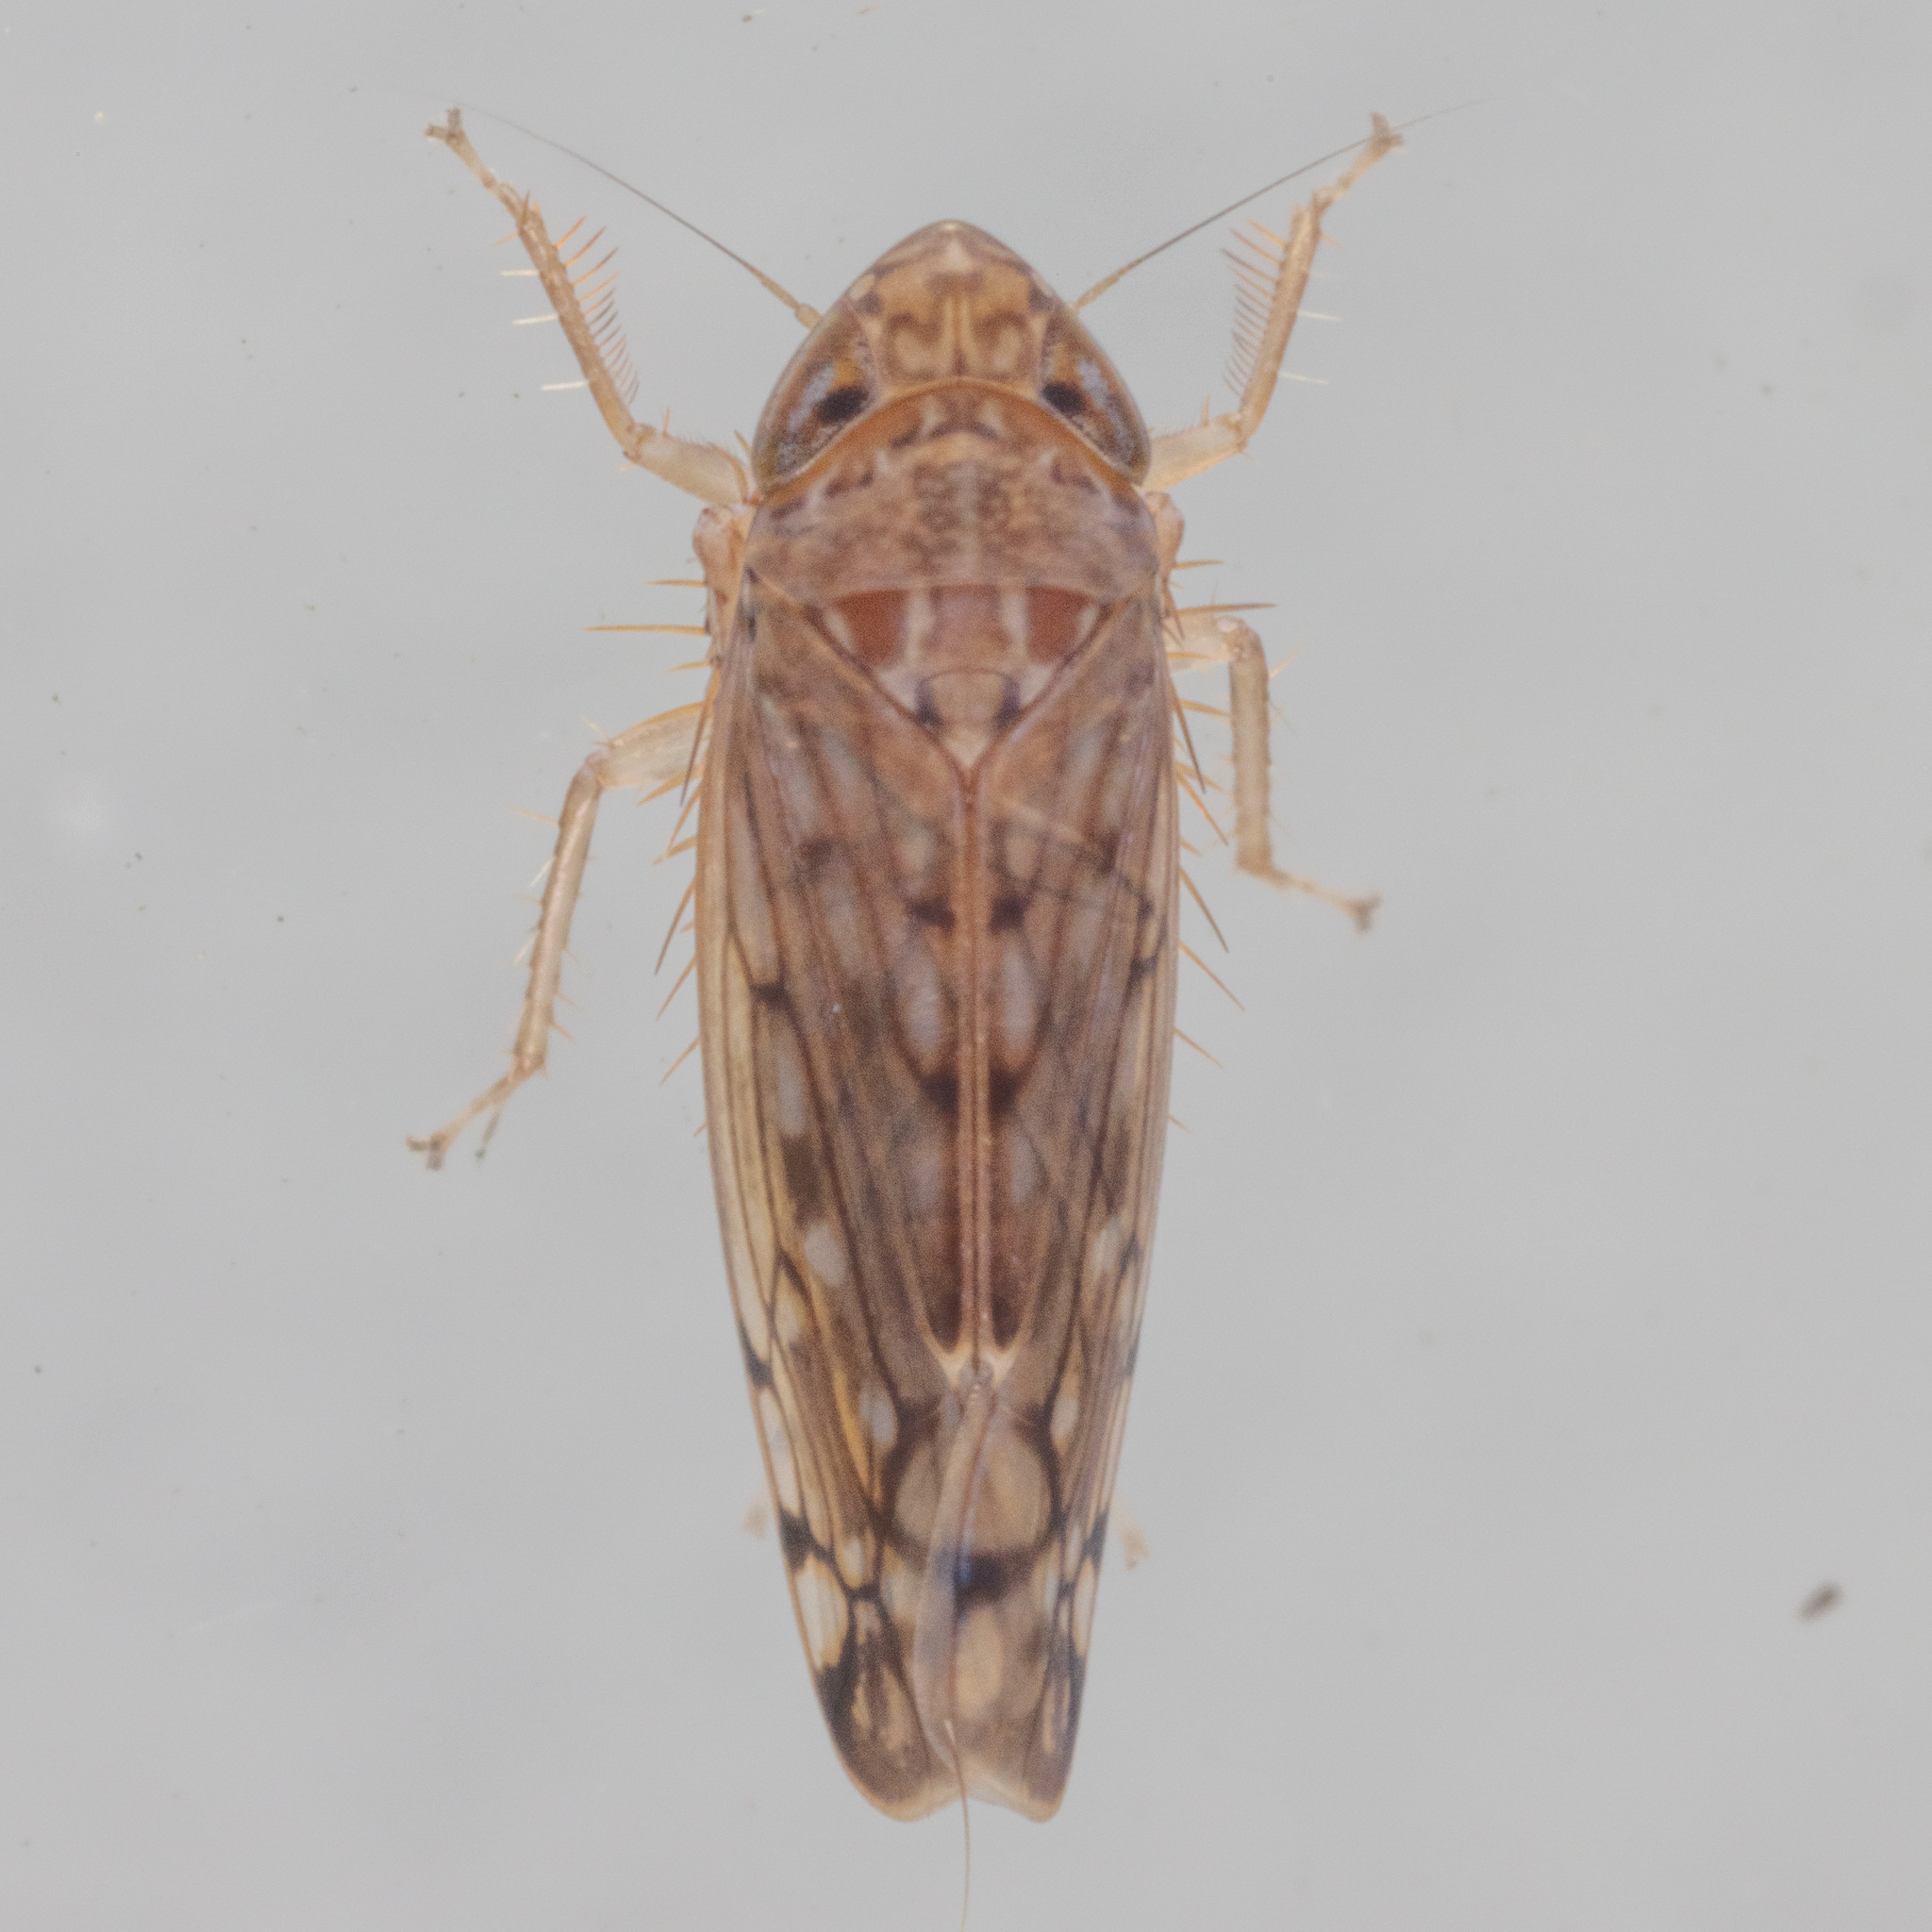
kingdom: Animalia
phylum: Arthropoda
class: Insecta
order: Hemiptera
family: Cicadellidae
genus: Osbornellus
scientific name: Osbornellus filamenta
